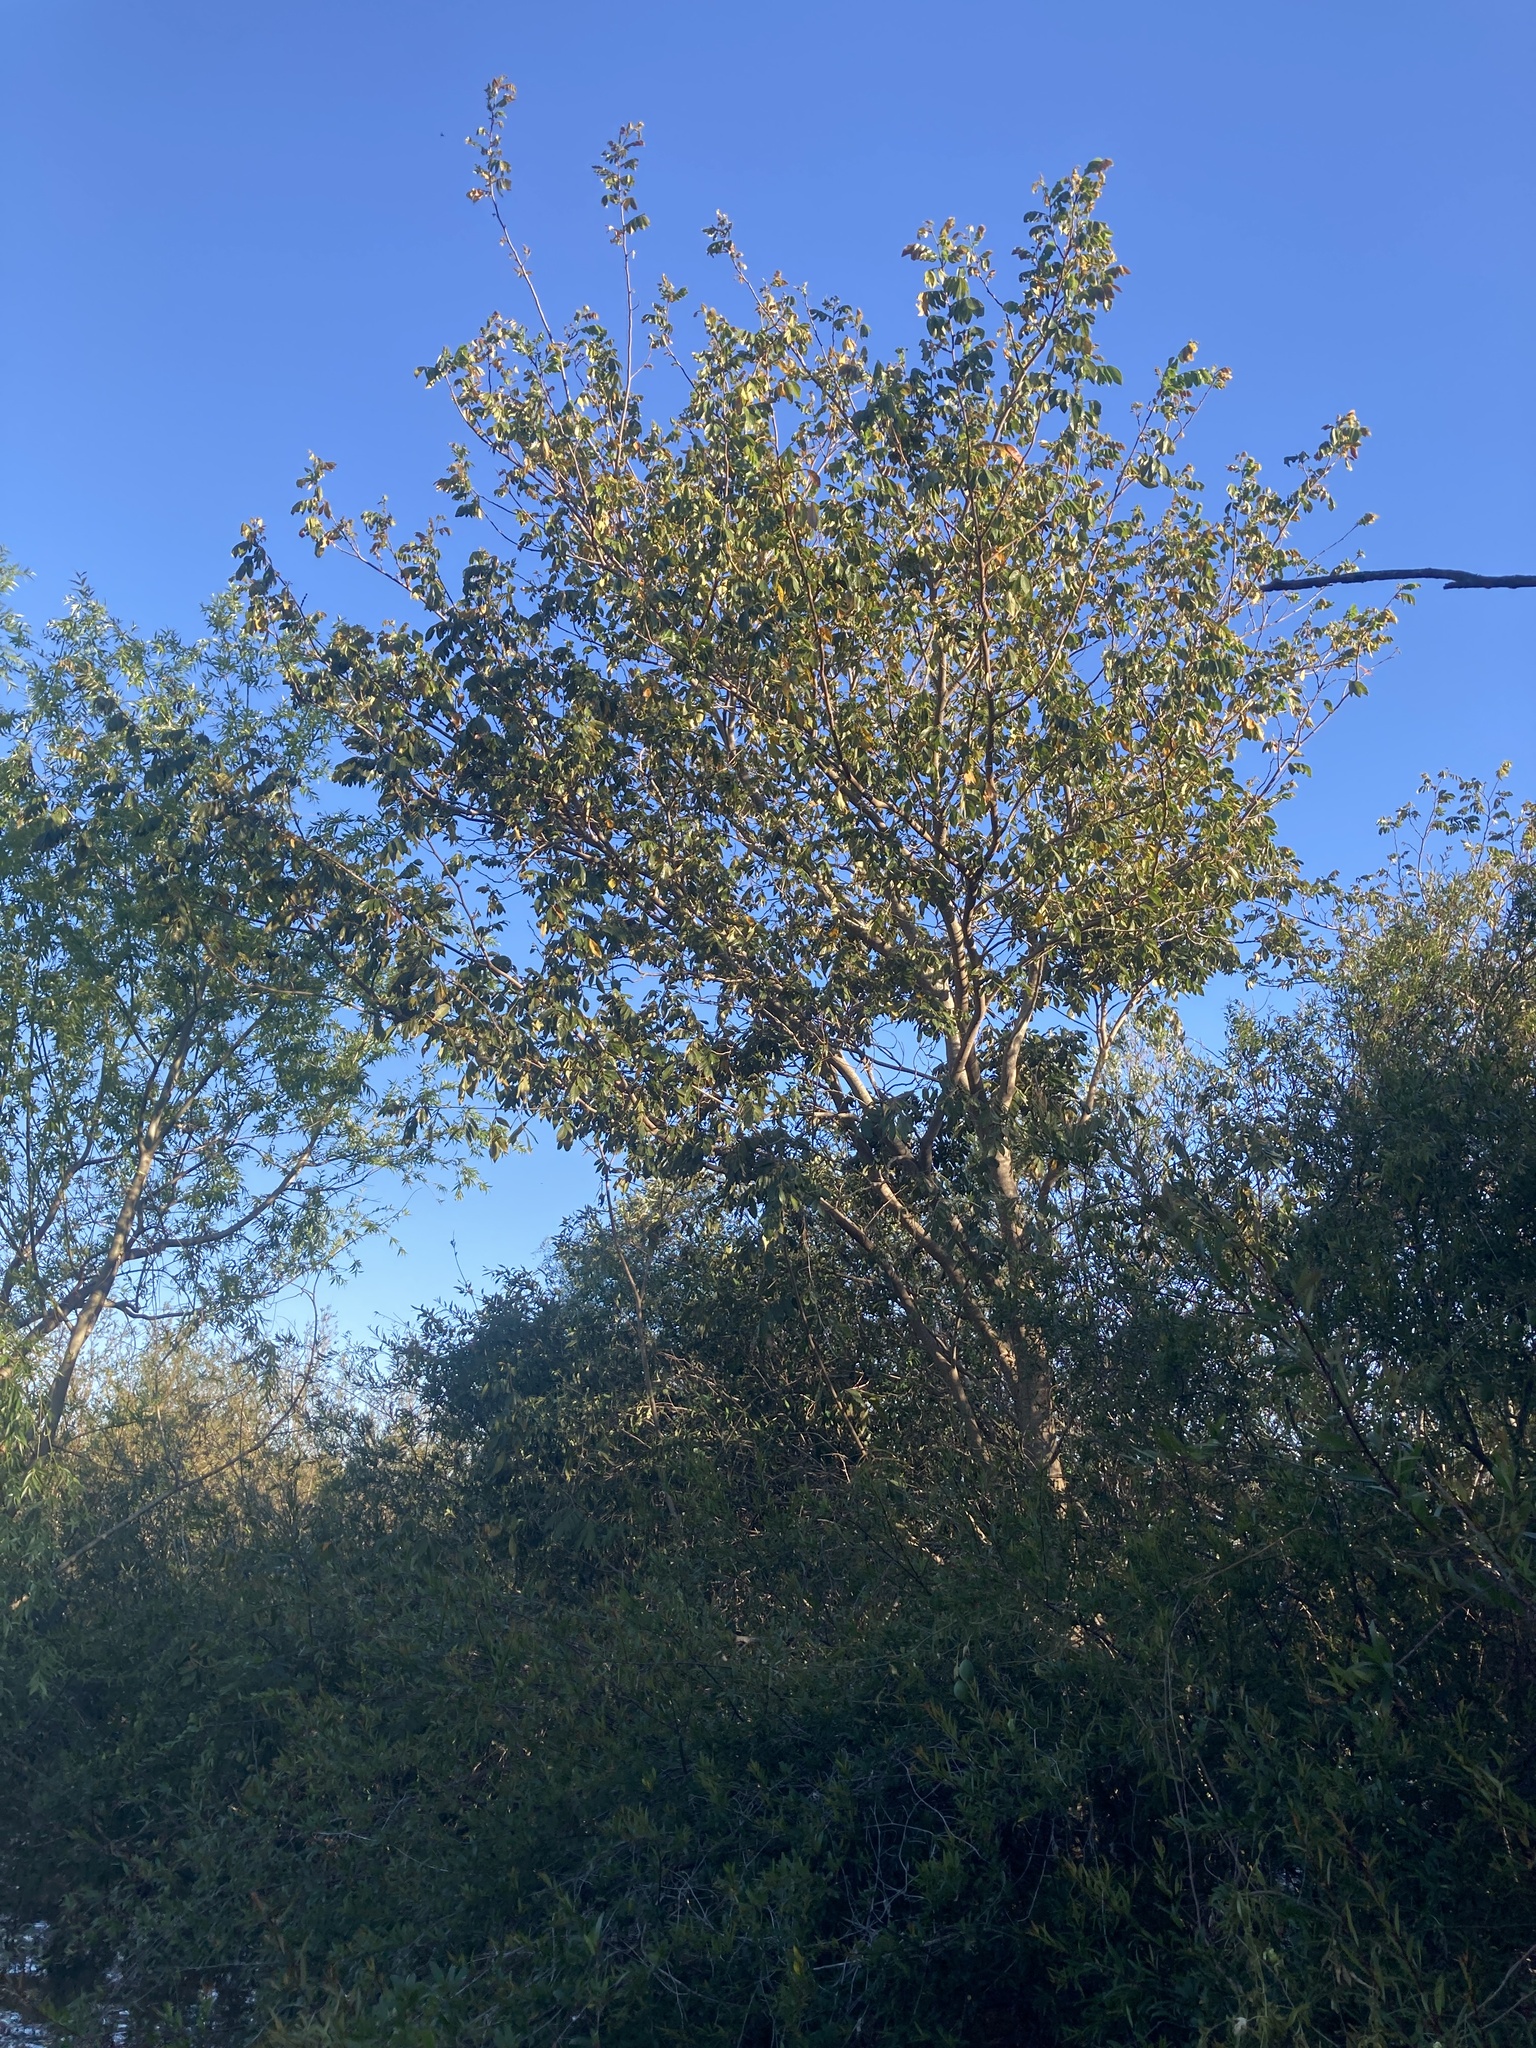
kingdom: Plantae
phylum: Tracheophyta
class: Magnoliopsida
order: Fabales
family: Fabaceae
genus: Inga
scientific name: Inga uraguensis
